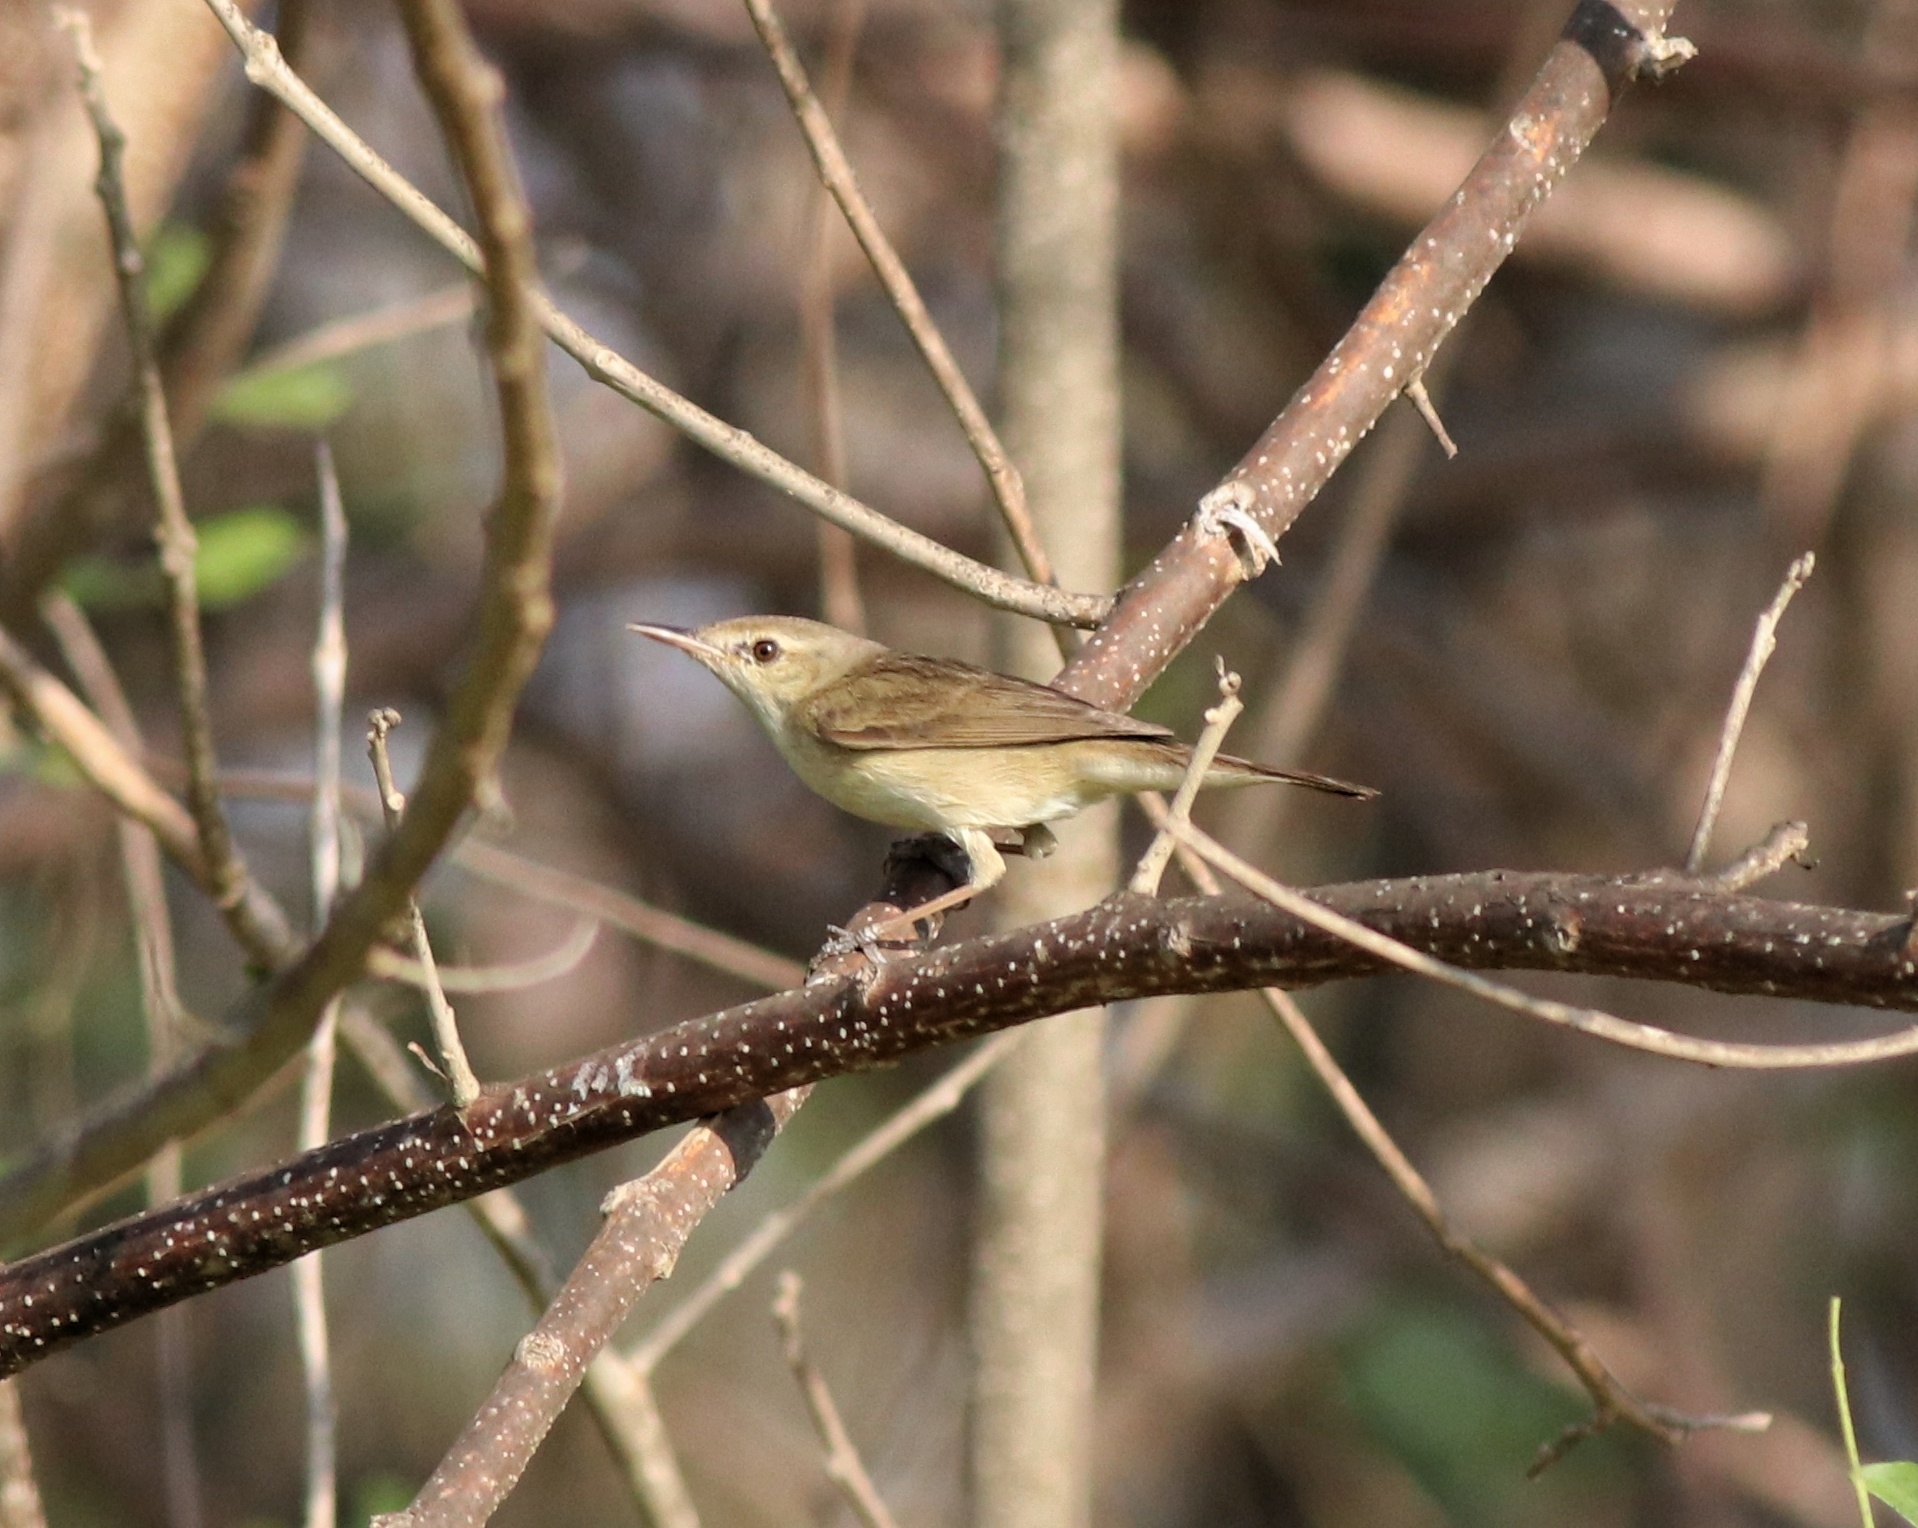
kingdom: Animalia
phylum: Chordata
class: Aves
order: Passeriformes
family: Acrocephalidae
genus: Acrocephalus
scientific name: Acrocephalus dumetorum
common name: Blyth's reed warbler
